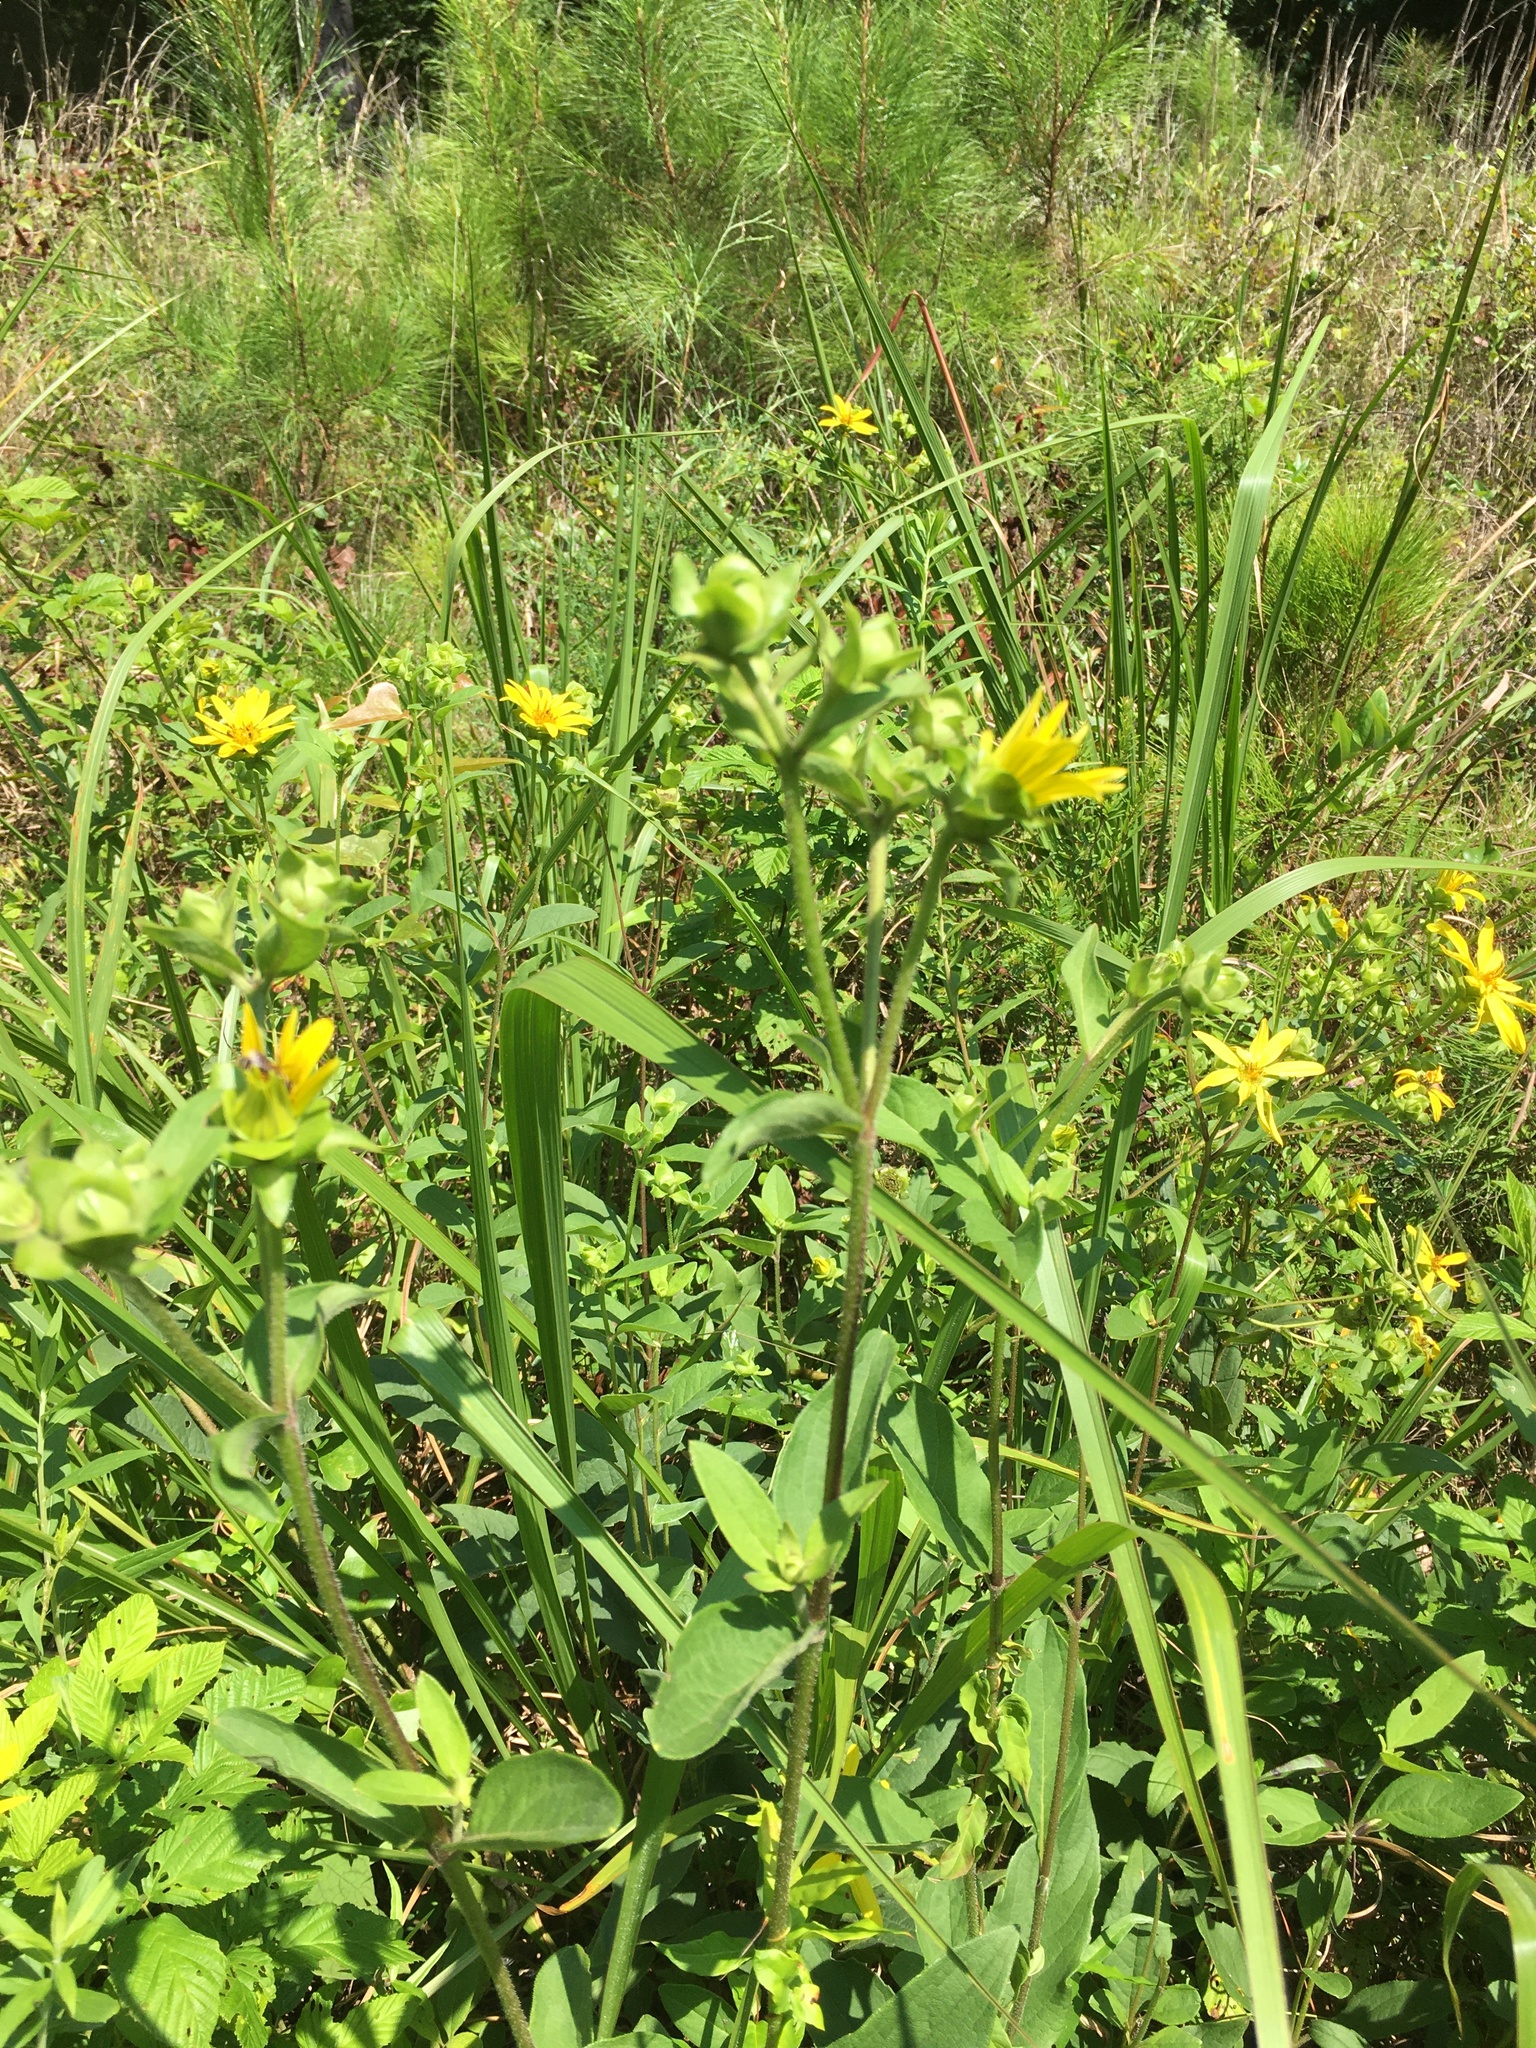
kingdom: Plantae
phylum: Tracheophyta
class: Magnoliopsida
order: Asterales
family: Asteraceae
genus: Silphium
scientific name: Silphium asteriscus
